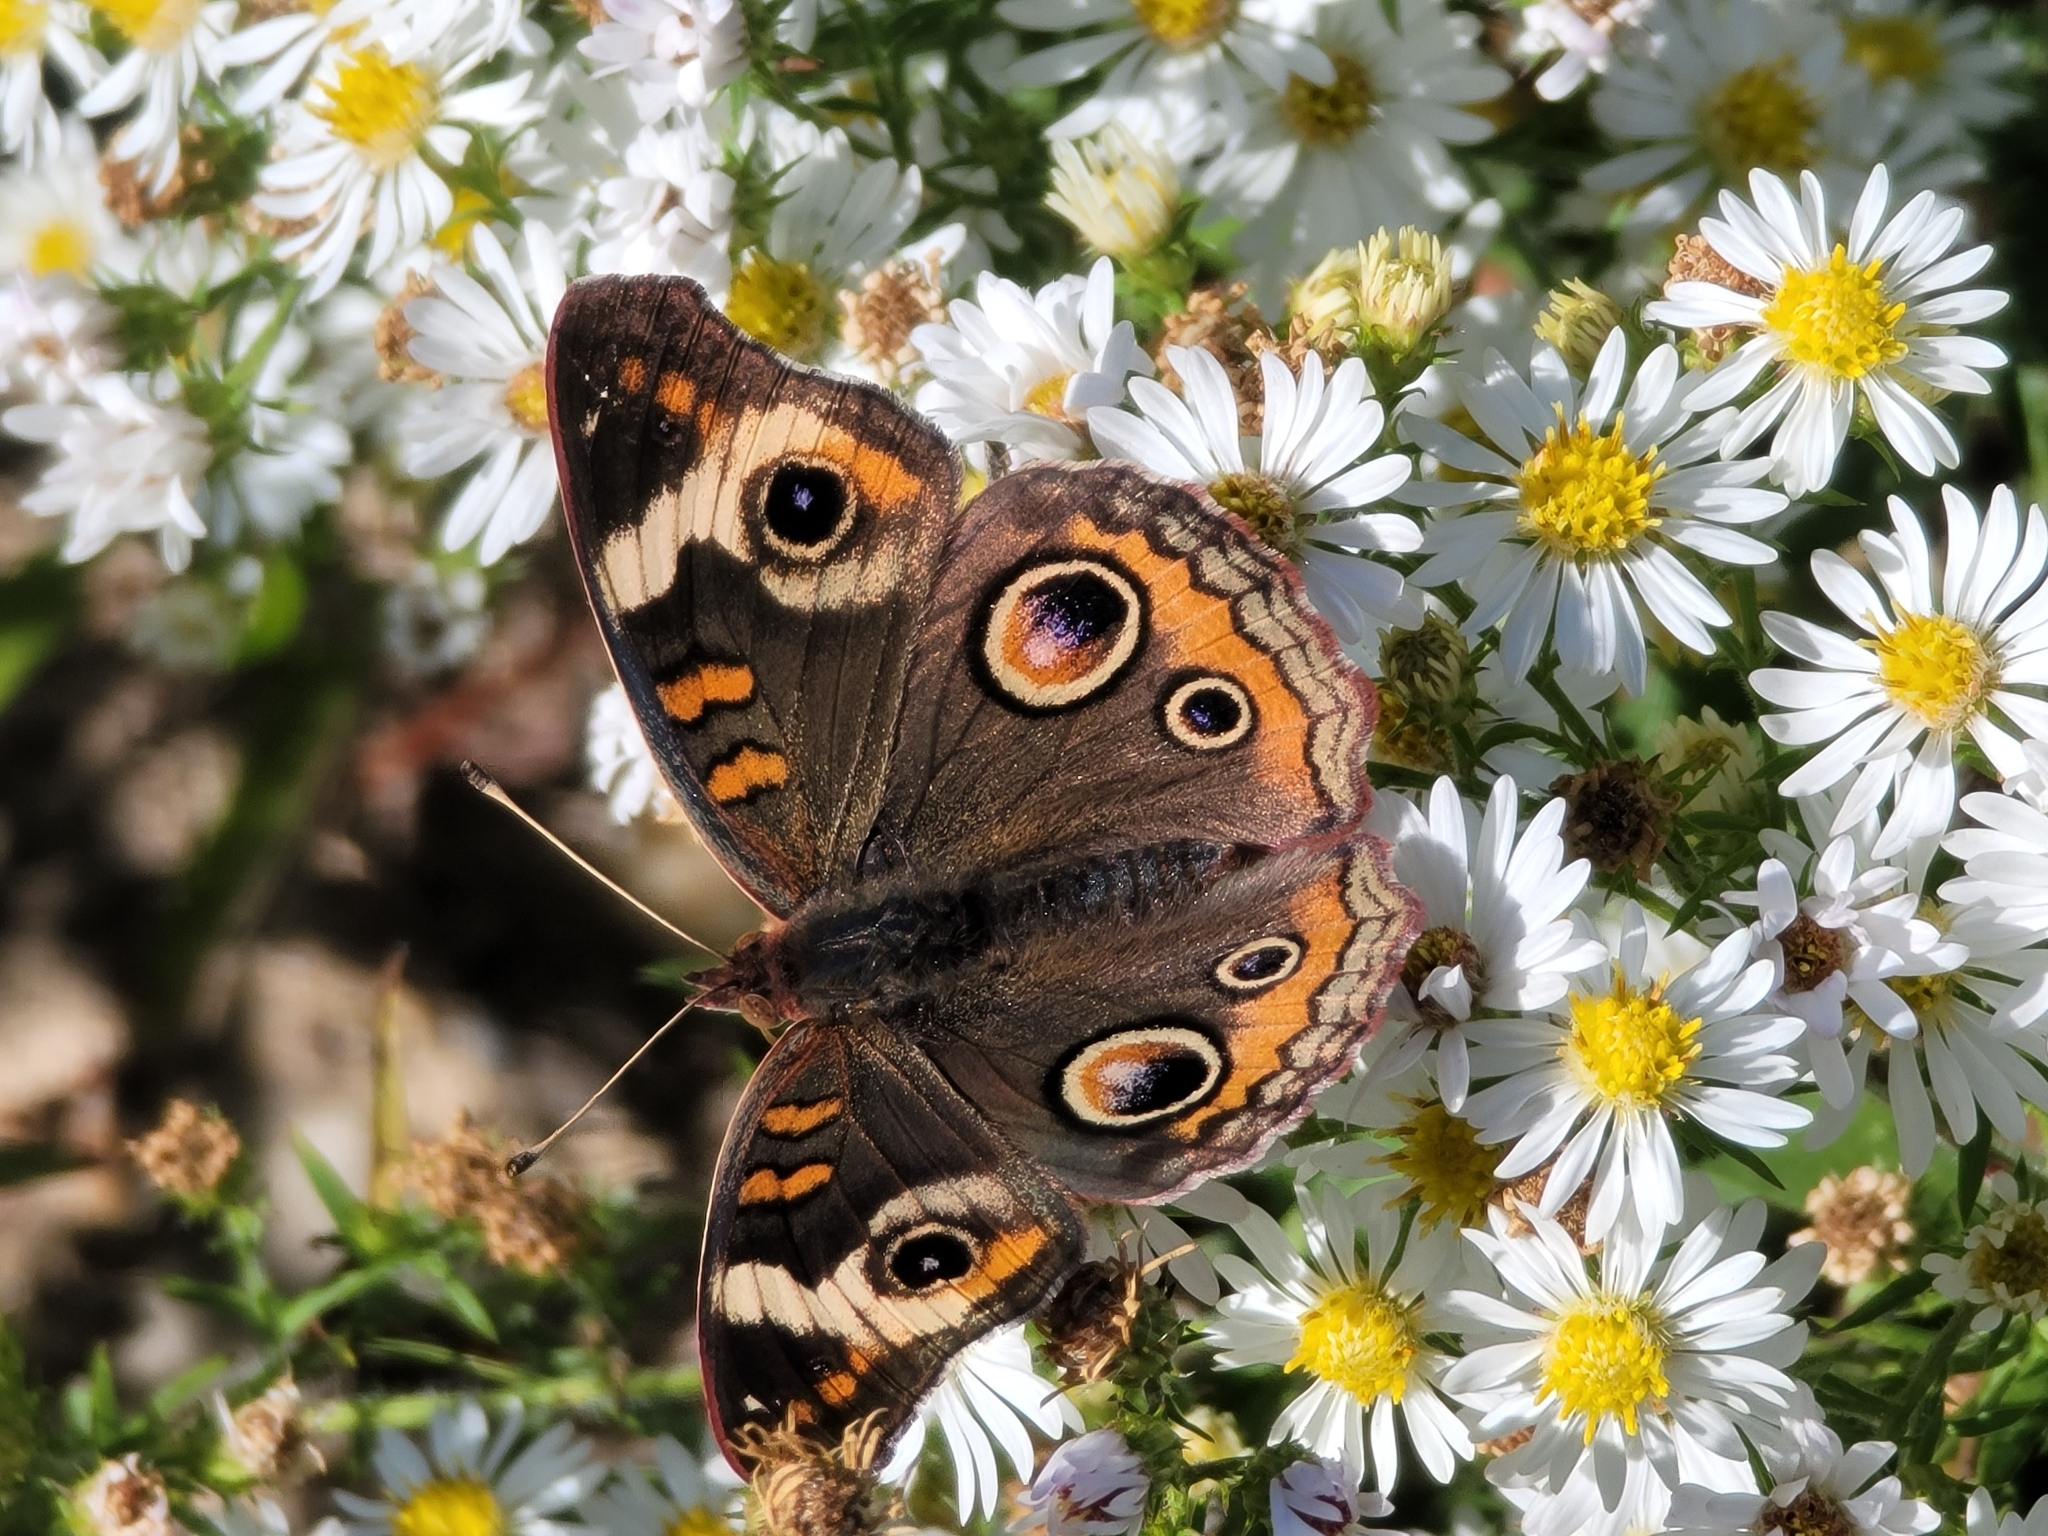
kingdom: Animalia
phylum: Arthropoda
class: Insecta
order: Lepidoptera
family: Nymphalidae
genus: Junonia
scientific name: Junonia coenia
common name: Common buckeye
